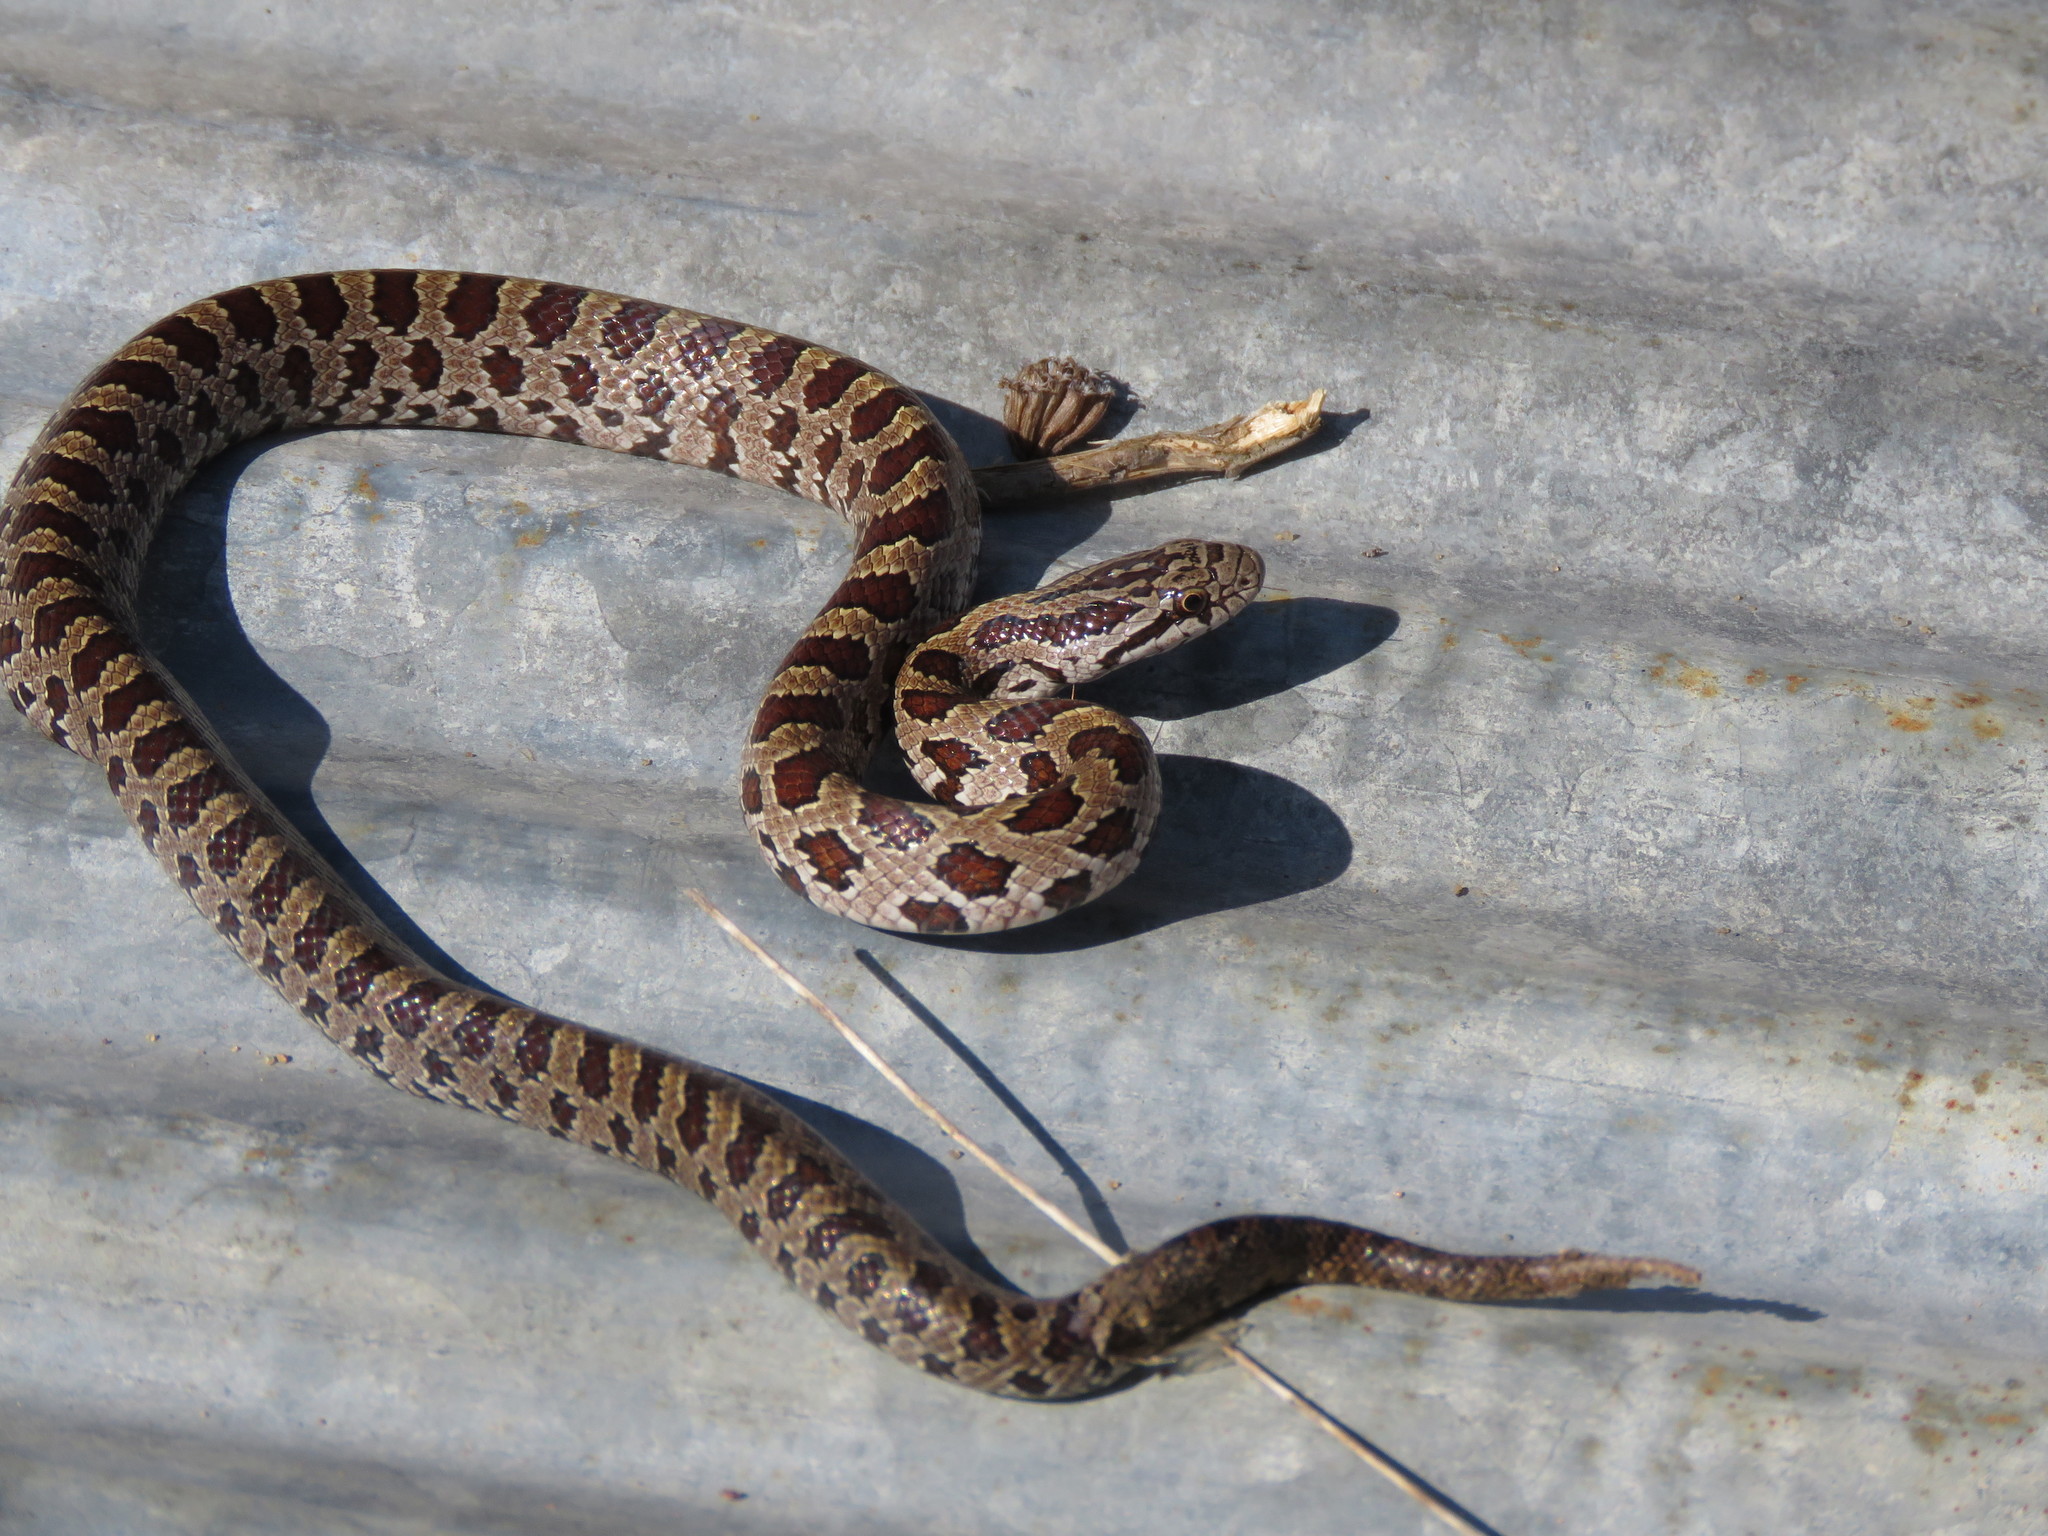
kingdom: Animalia
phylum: Chordata
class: Squamata
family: Colubridae
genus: Lampropeltis
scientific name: Lampropeltis calligaster
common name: Prairie kingsnake
